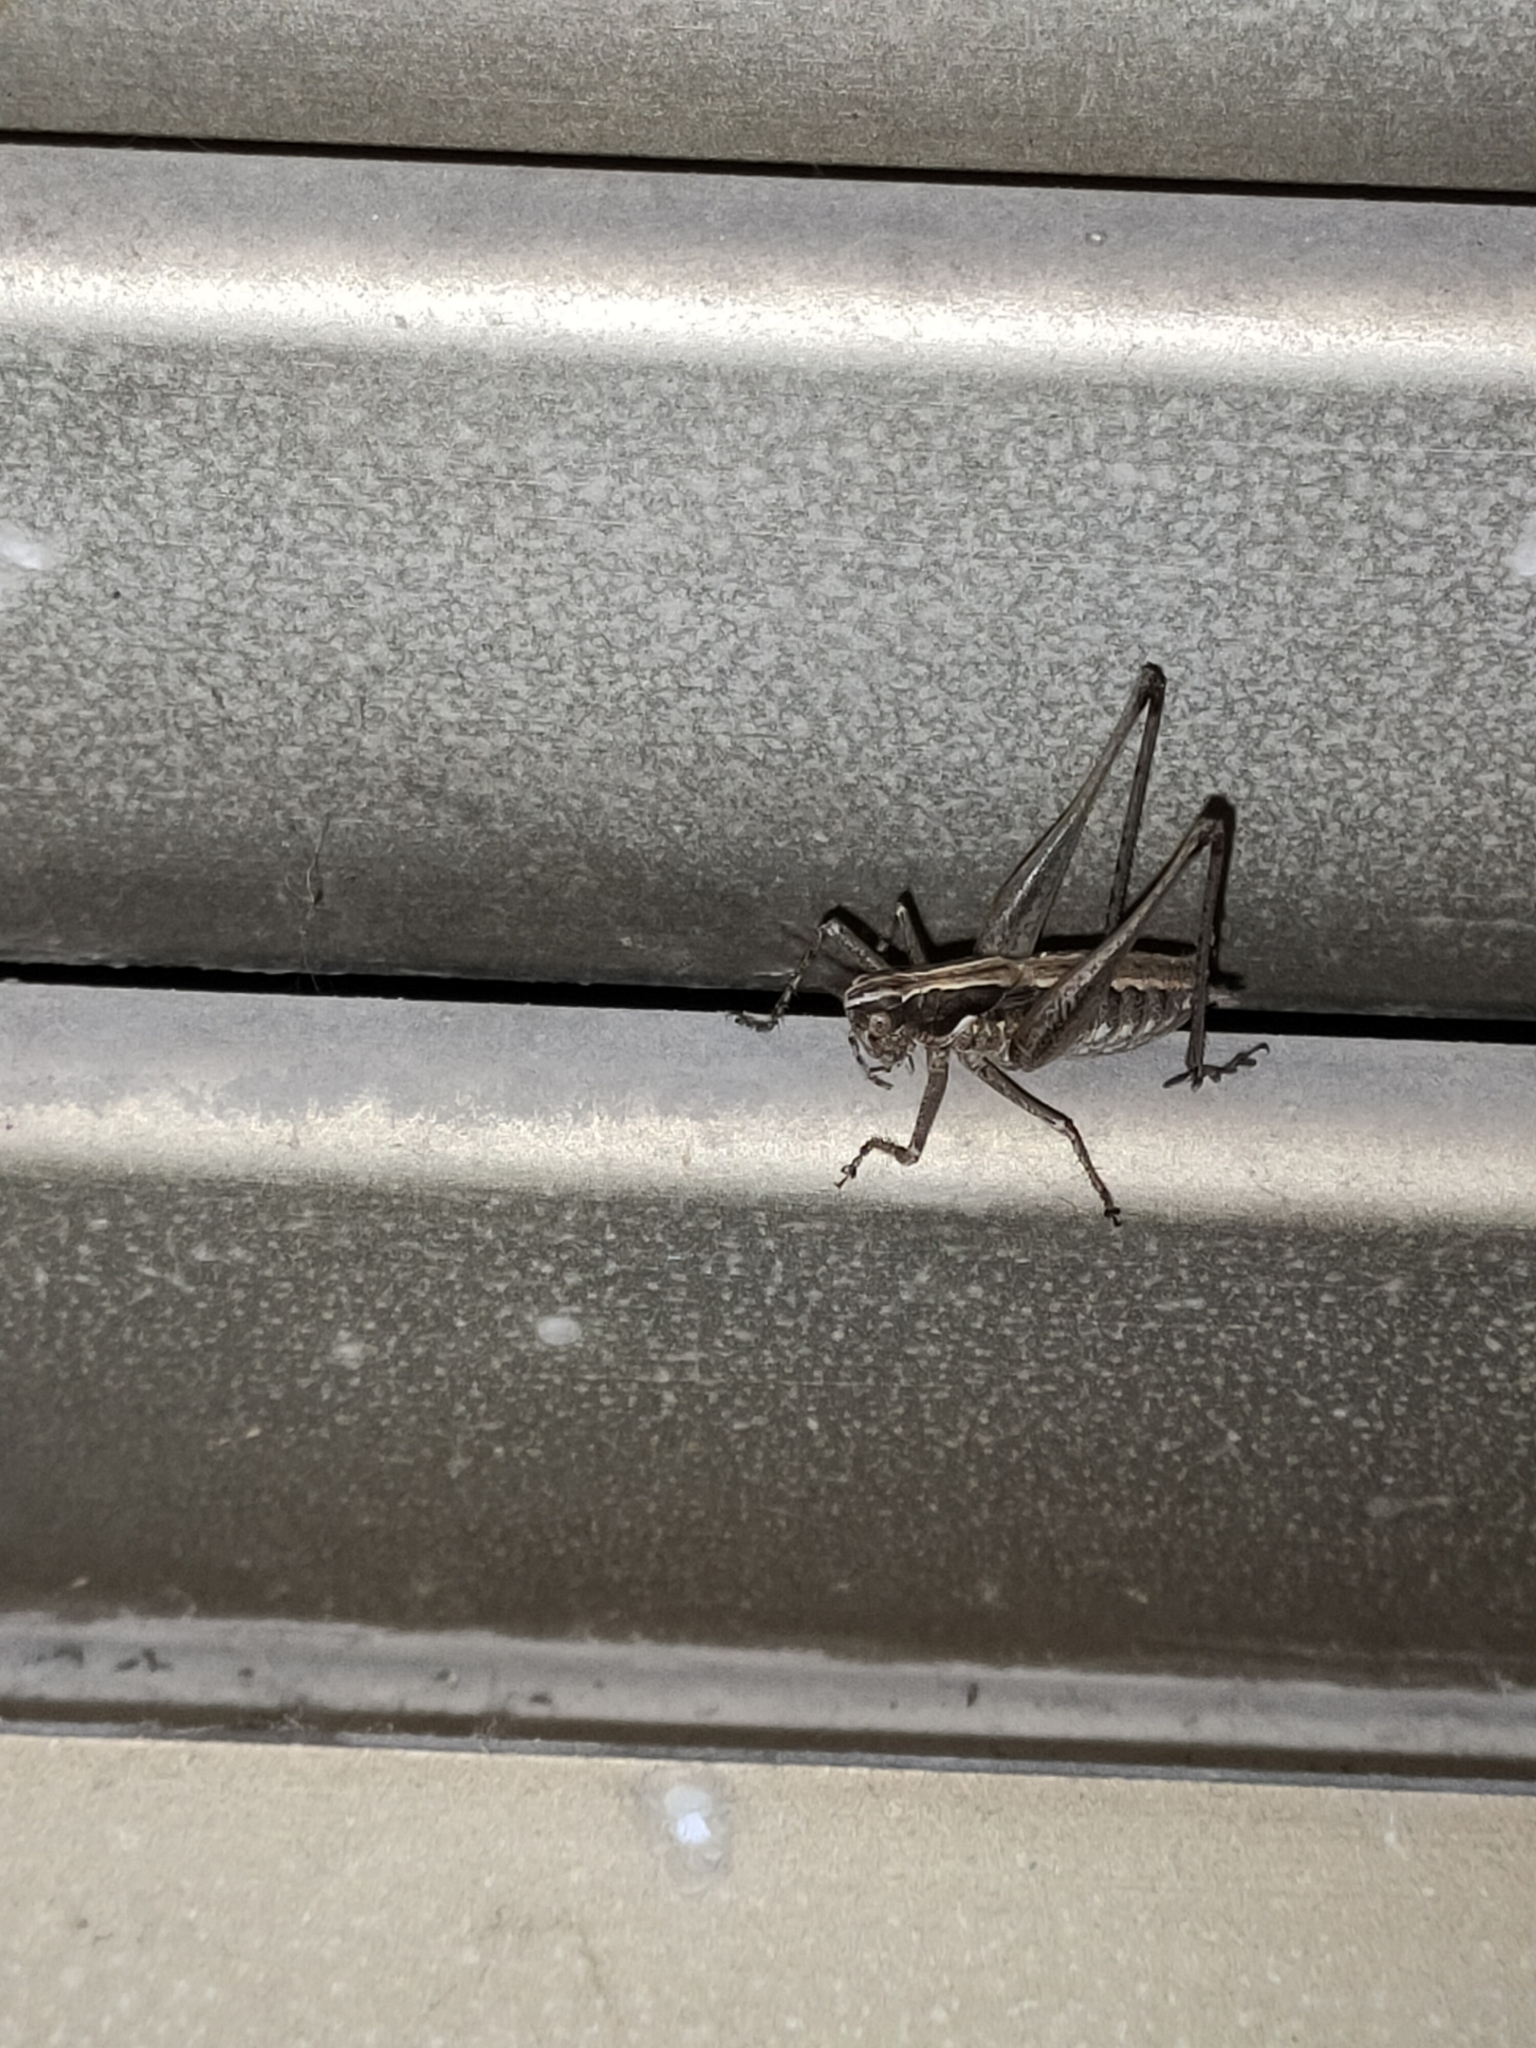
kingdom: Animalia
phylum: Arthropoda
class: Insecta
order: Orthoptera
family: Tettigoniidae
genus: Rhacocleis
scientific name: Rhacocleis germanica
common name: Mediterranean bush-cricket
